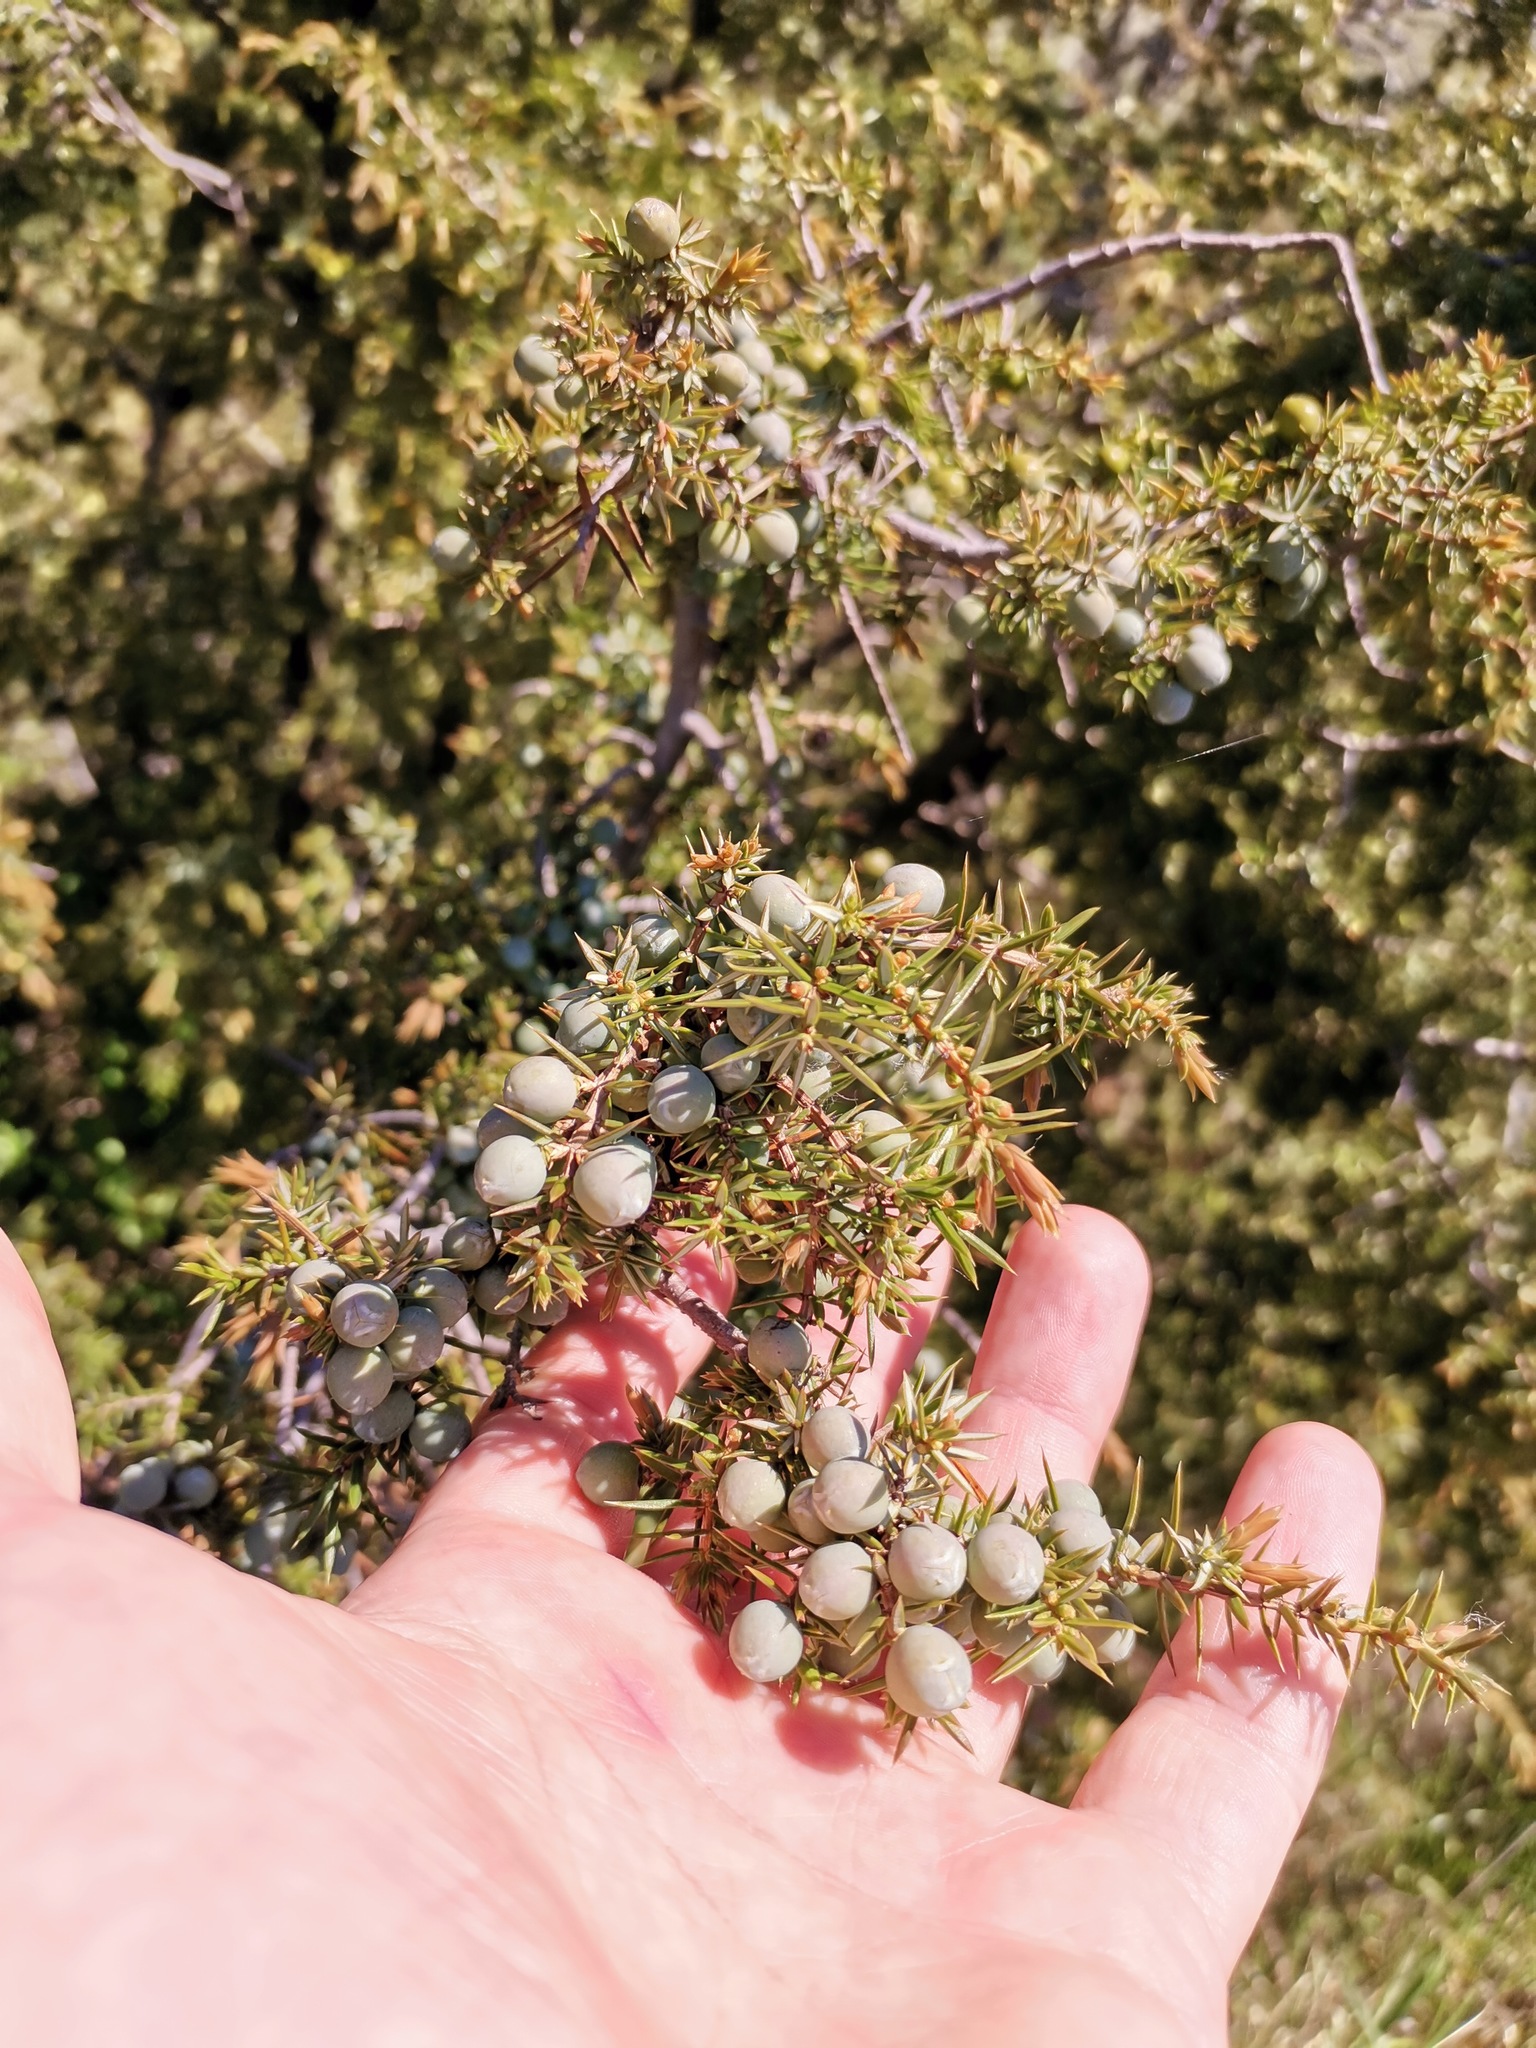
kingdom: Plantae
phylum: Tracheophyta
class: Pinopsida
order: Pinales
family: Cupressaceae
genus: Juniperus
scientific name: Juniperus communis
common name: Common juniper
